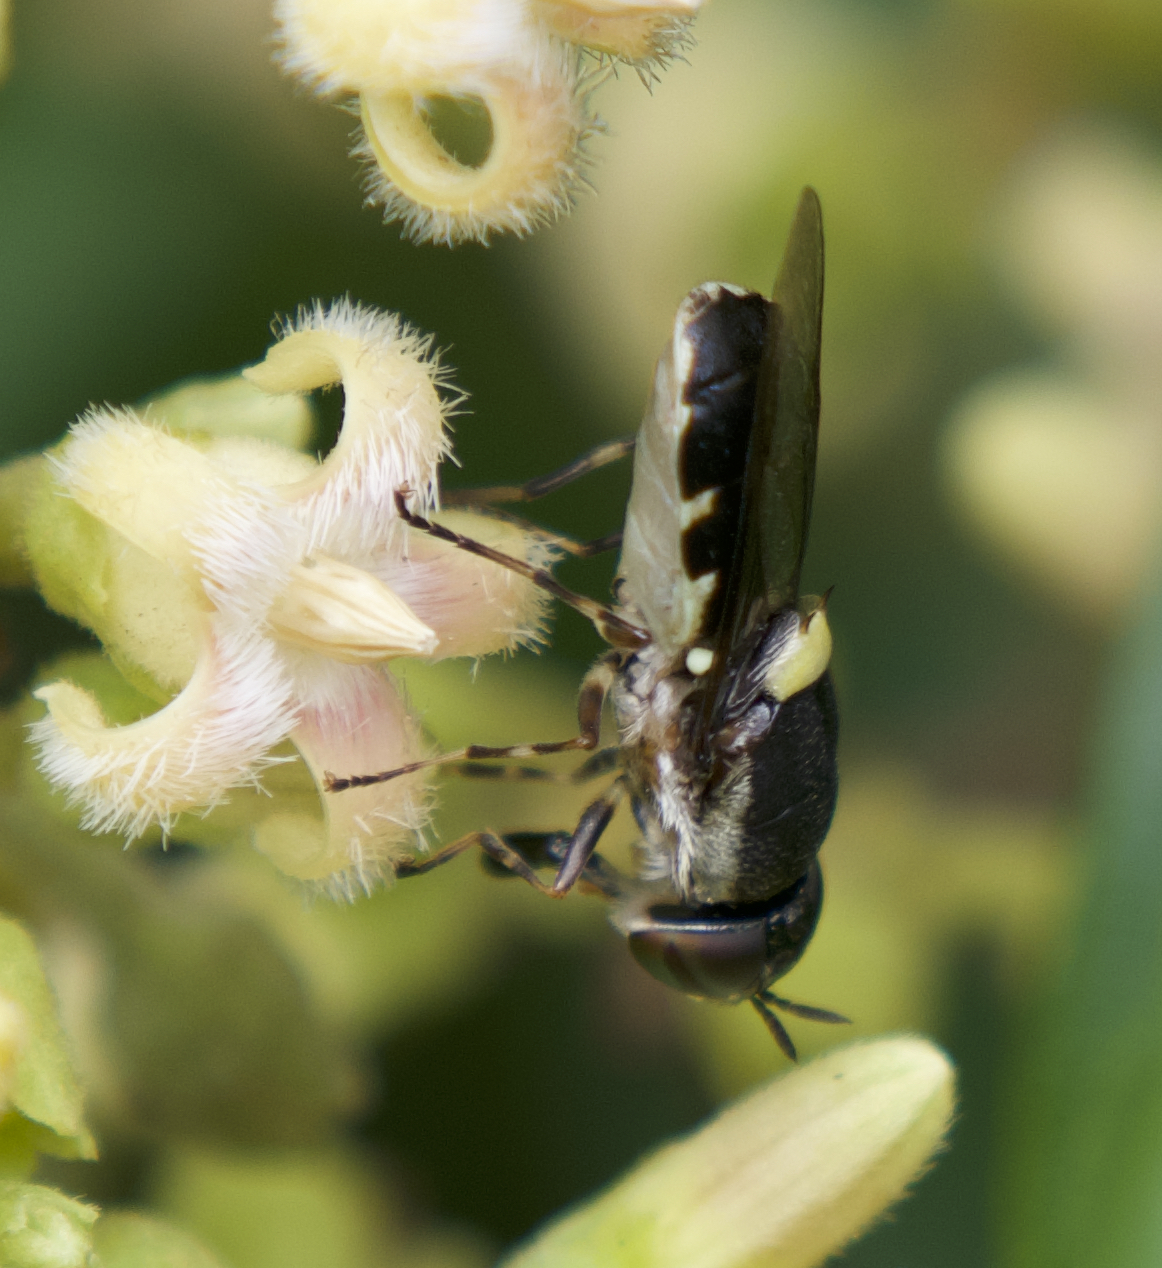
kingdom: Animalia
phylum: Arthropoda
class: Insecta
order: Diptera
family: Stratiomyidae
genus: Odontomyia
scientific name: Odontomyia hunteri
